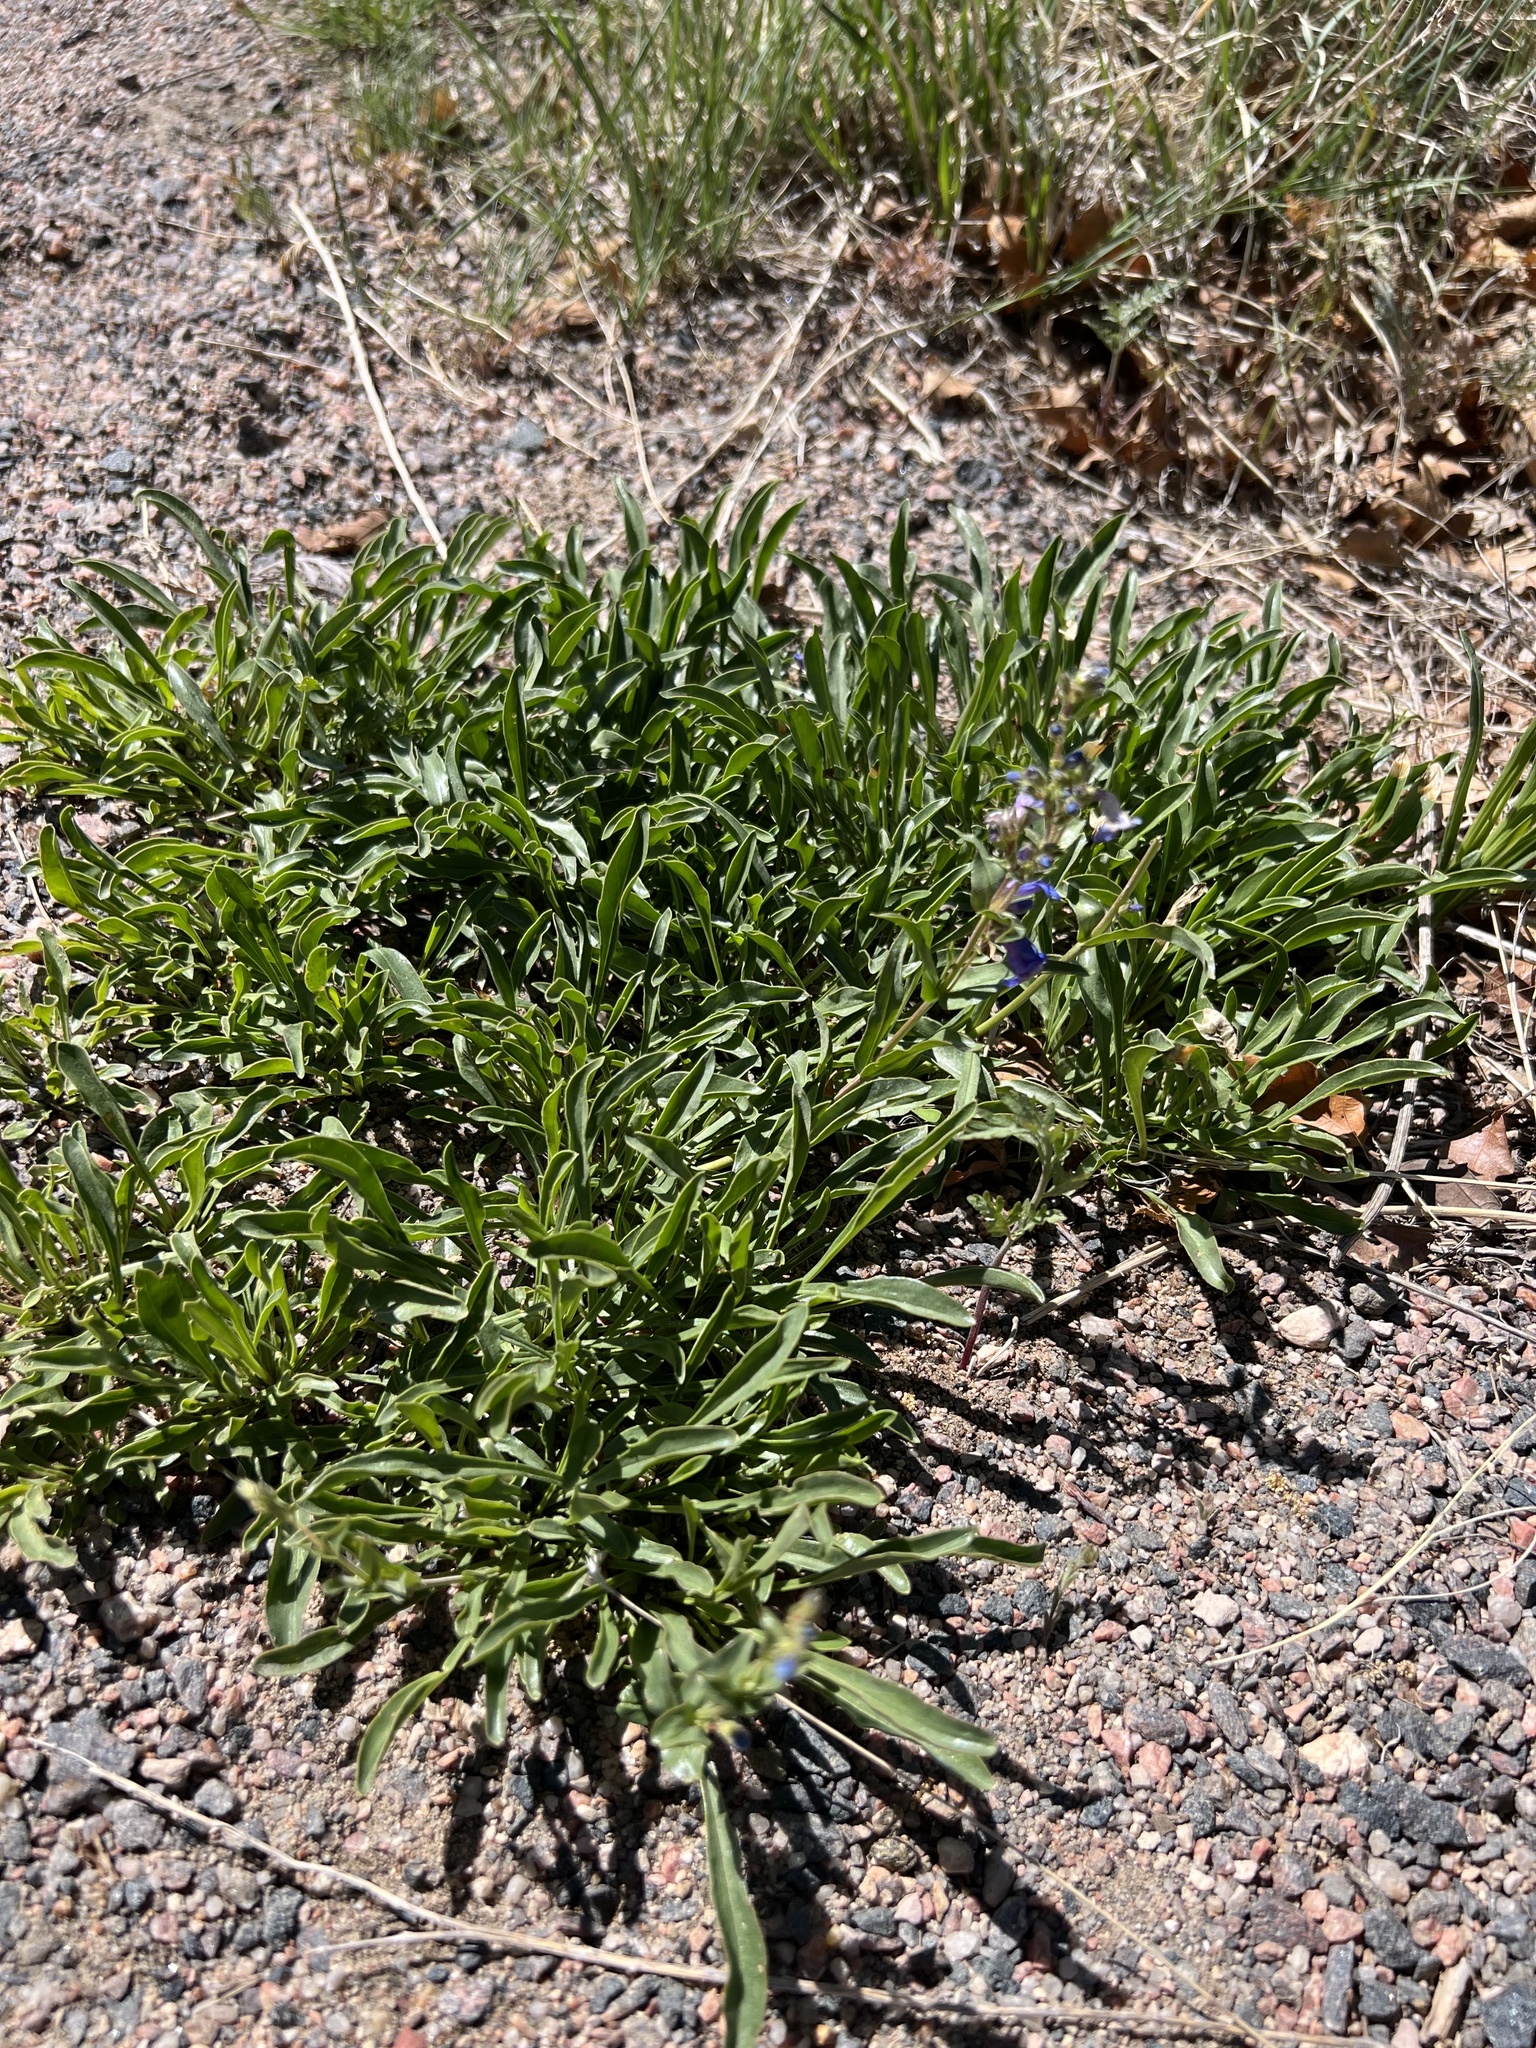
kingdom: Plantae
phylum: Tracheophyta
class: Magnoliopsida
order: Lamiales
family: Plantaginaceae
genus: Penstemon
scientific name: Penstemon virens
